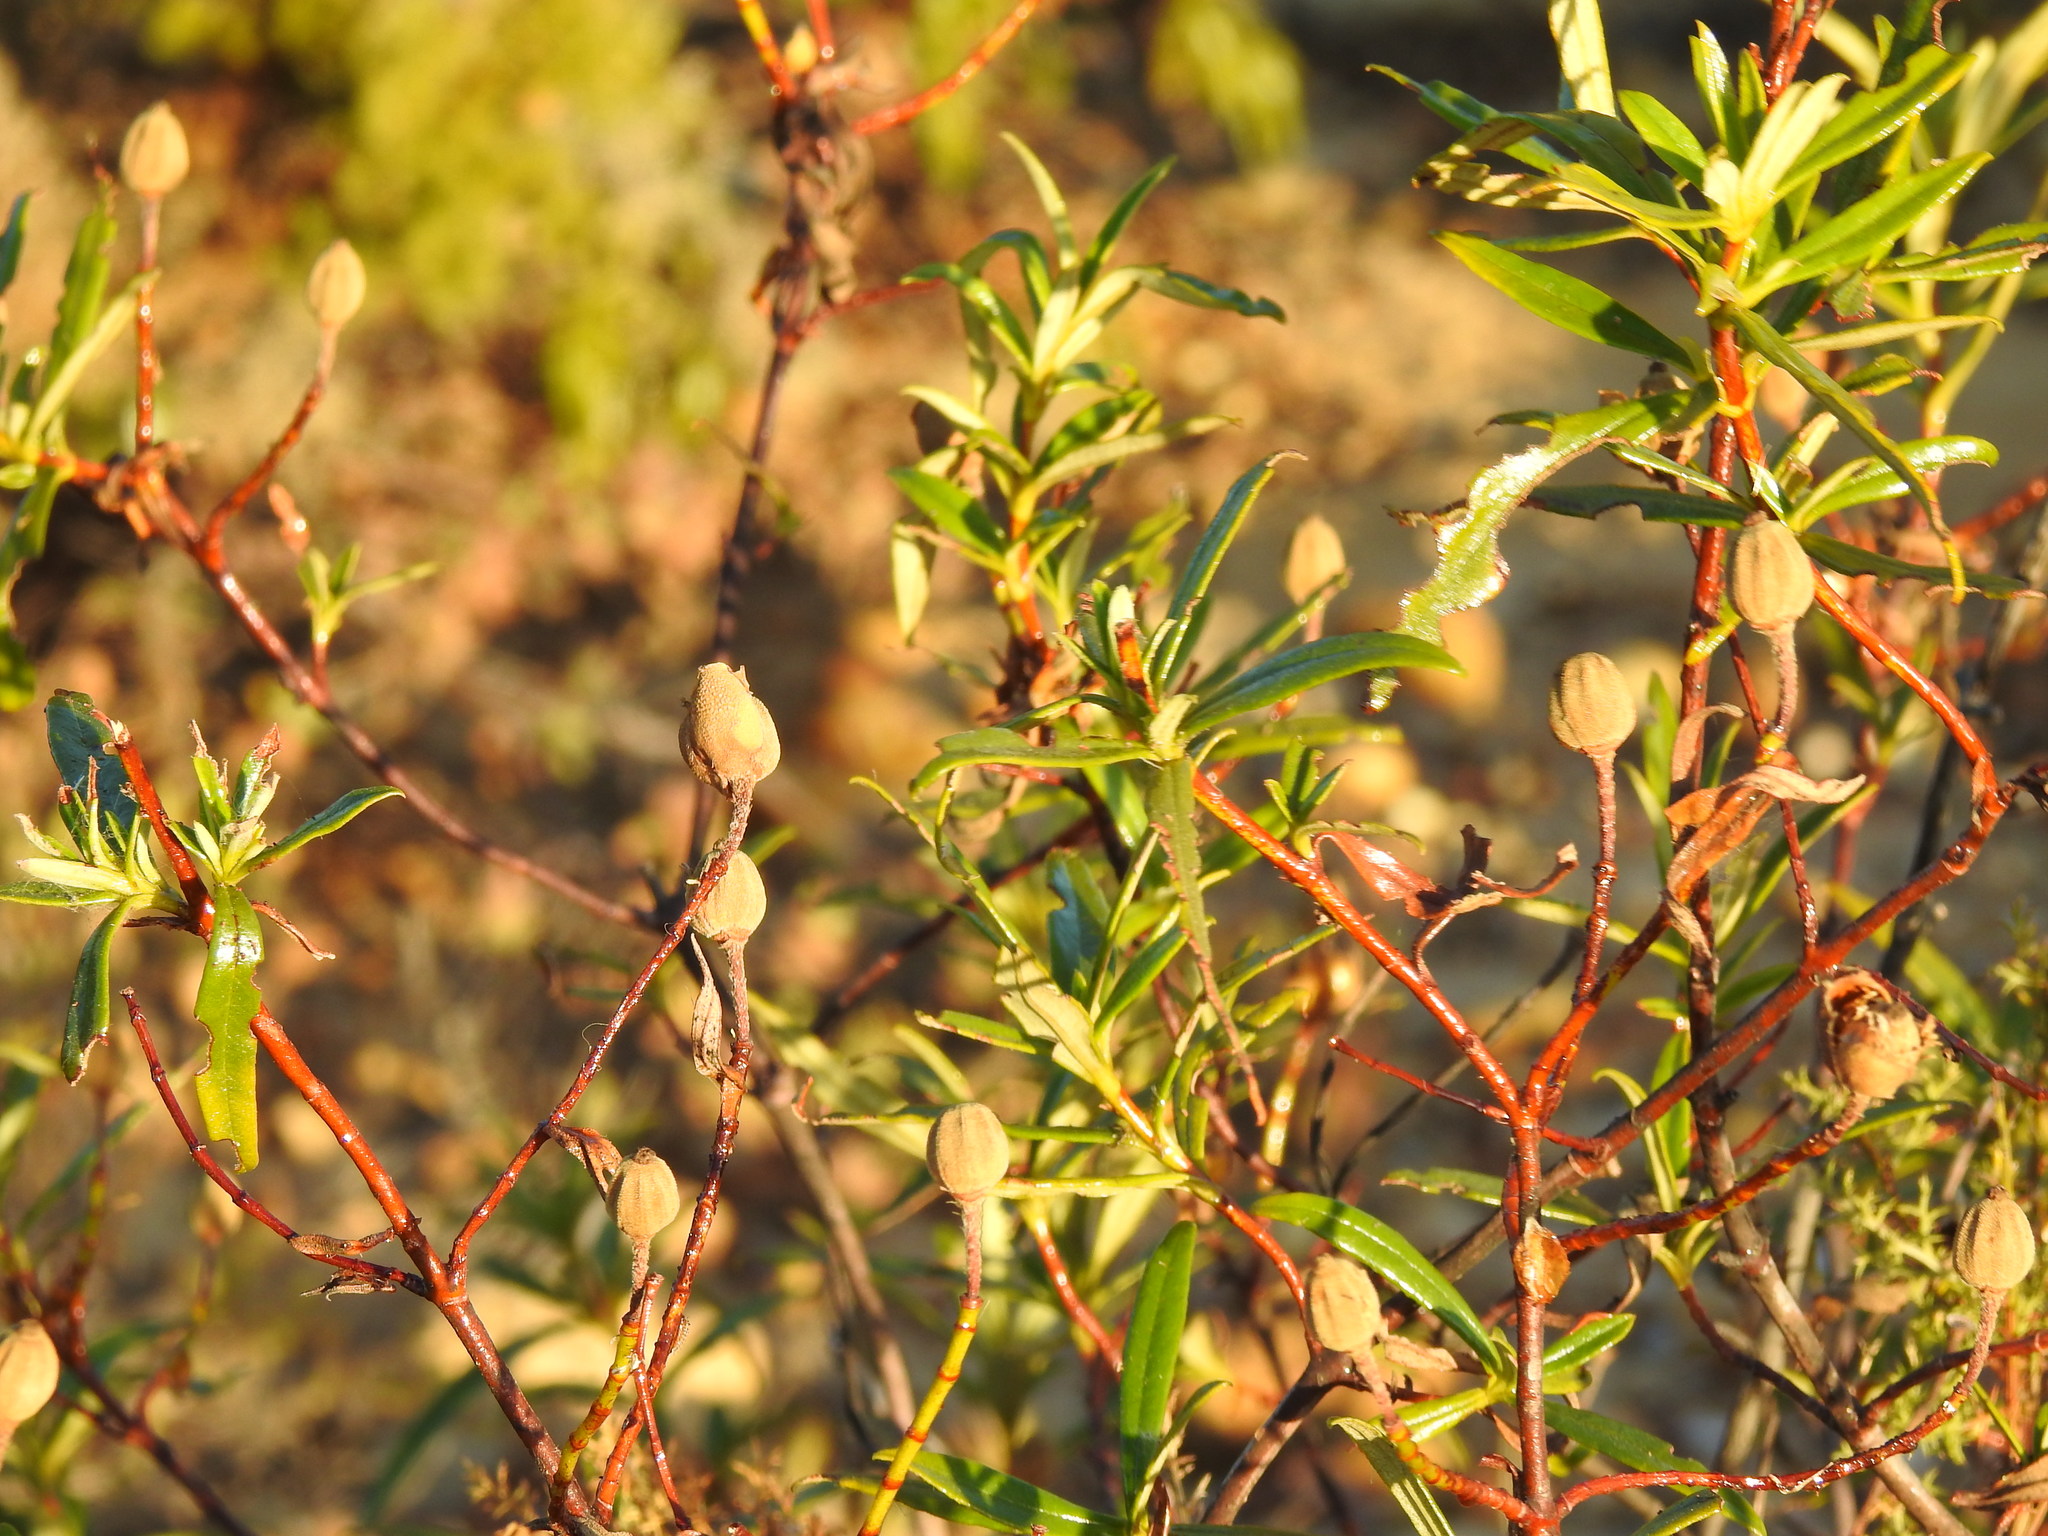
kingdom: Plantae
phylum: Tracheophyta
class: Magnoliopsida
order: Malvales
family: Cistaceae
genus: Cistus
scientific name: Cistus ladanifer
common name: Common gum cistus
